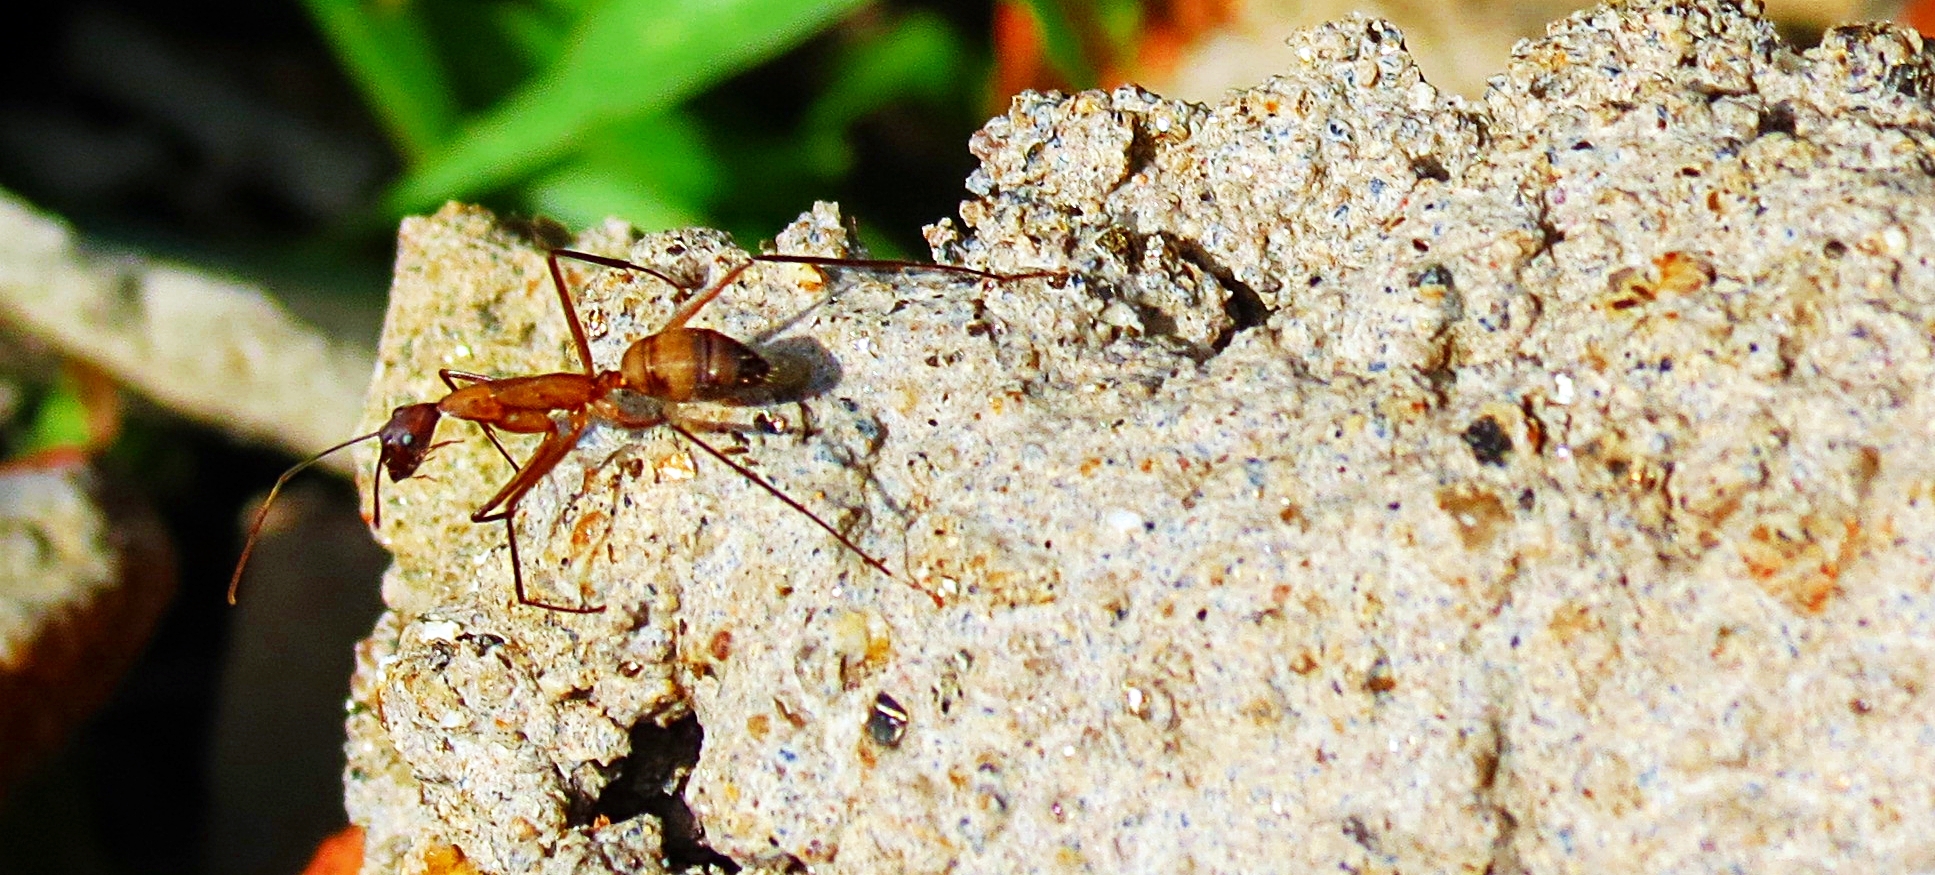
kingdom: Animalia
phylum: Arthropoda
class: Insecta
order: Hymenoptera
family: Formicidae
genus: Camponotus
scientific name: Camponotus amoris
